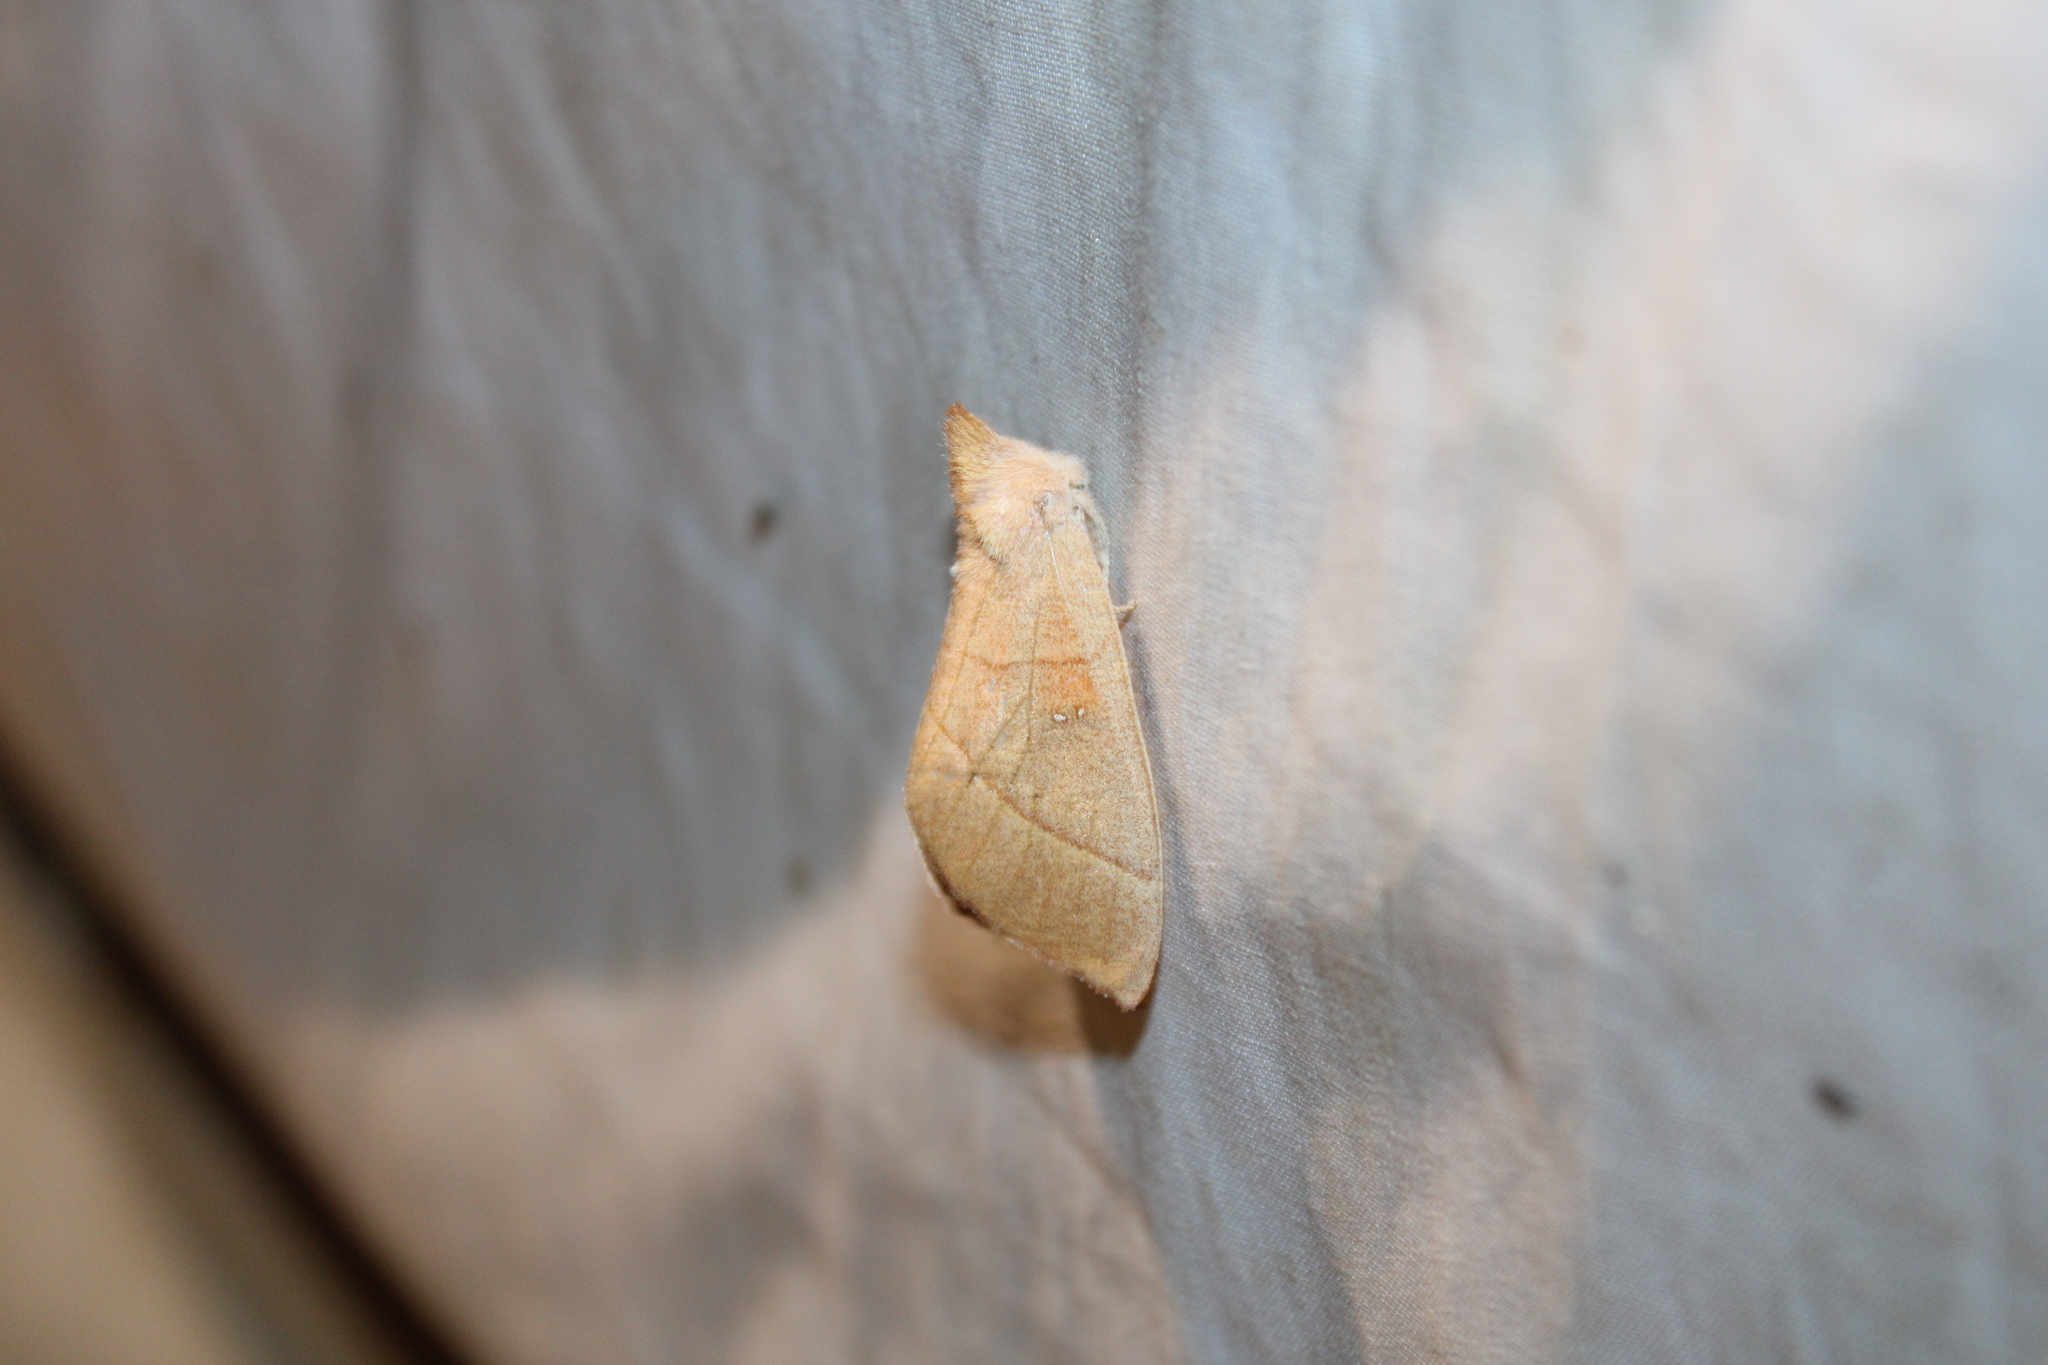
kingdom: Animalia
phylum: Arthropoda
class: Insecta
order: Lepidoptera
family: Notodontidae
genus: Nadata
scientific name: Nadata gibbosa
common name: White-dotted prominent
